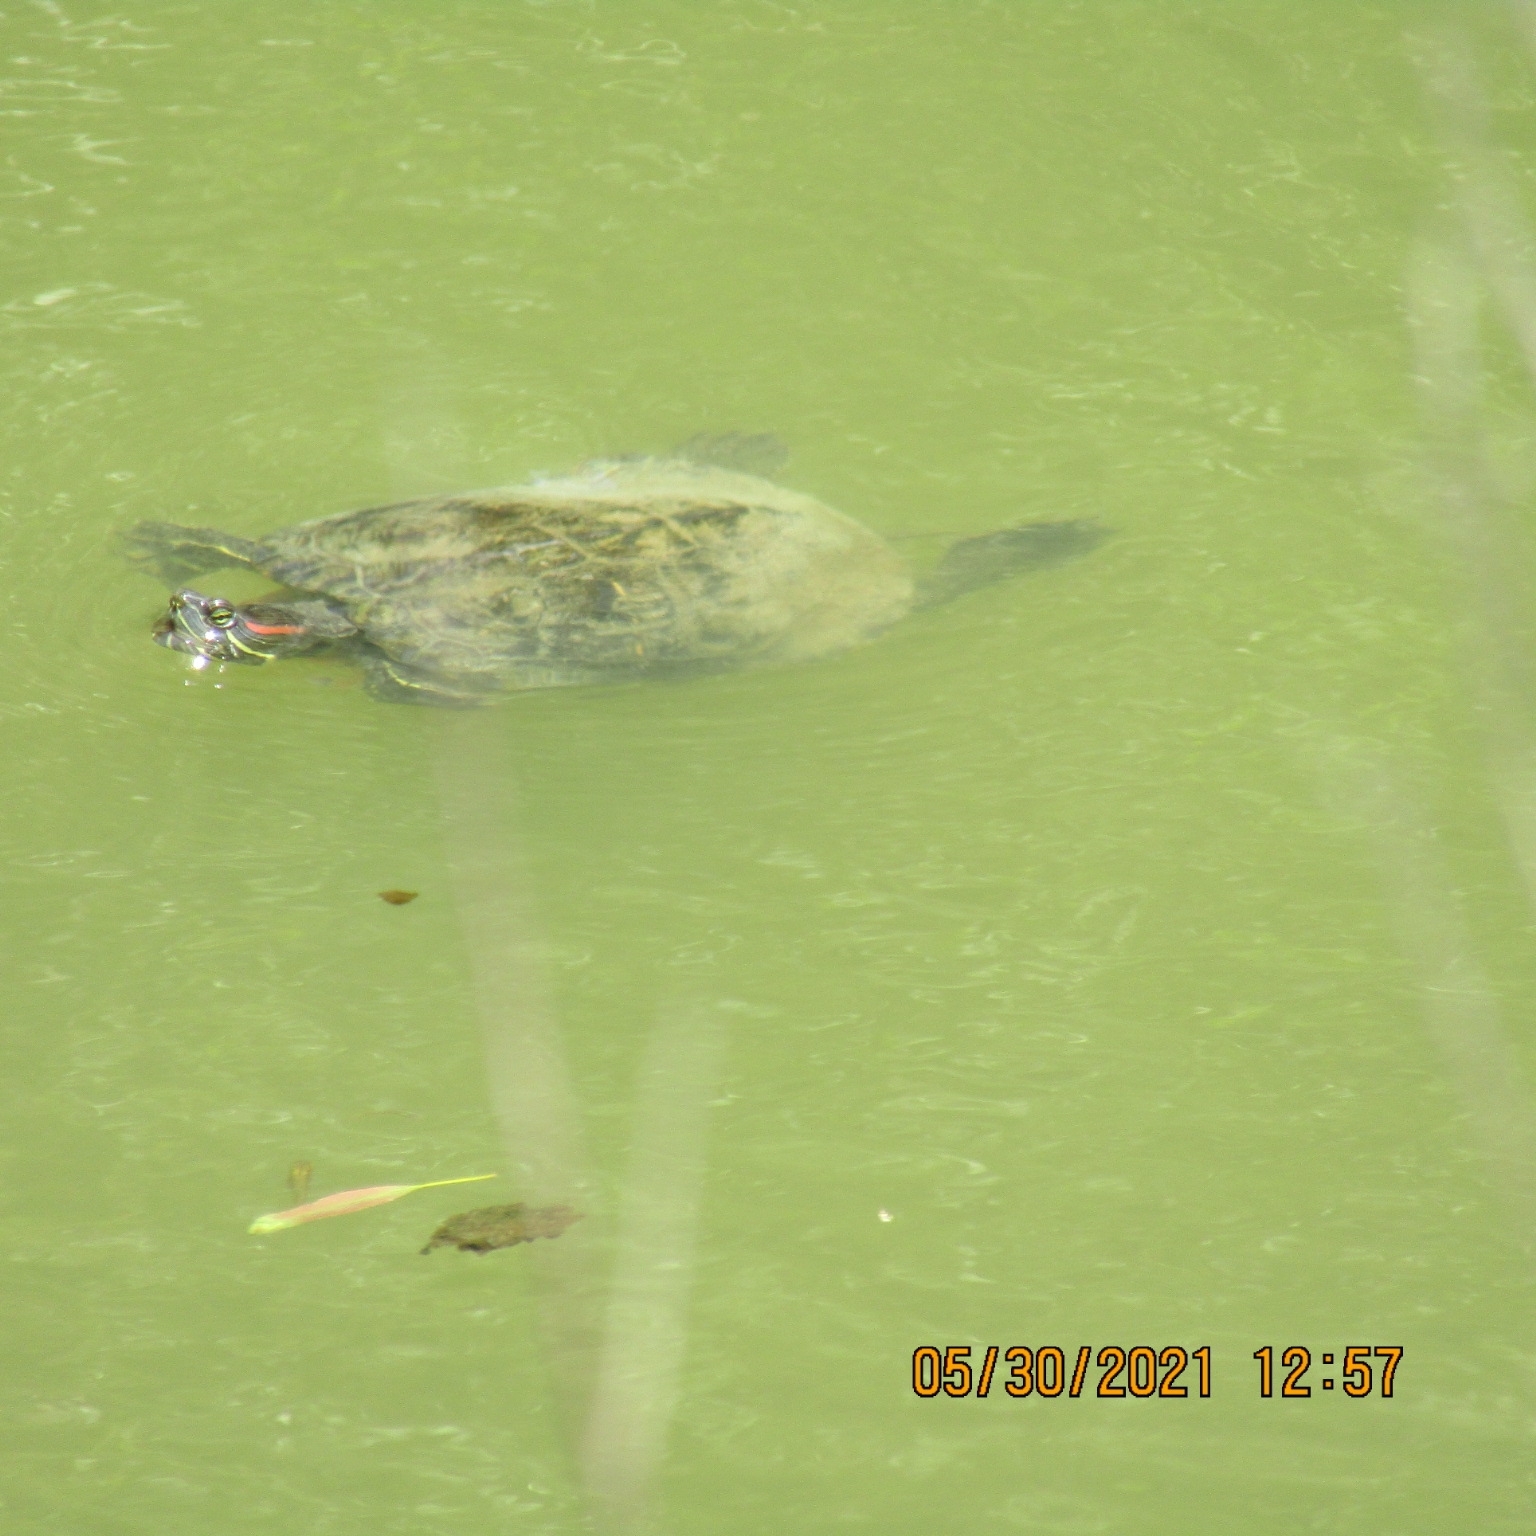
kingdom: Animalia
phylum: Chordata
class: Testudines
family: Emydidae
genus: Trachemys
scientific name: Trachemys scripta
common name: Slider
